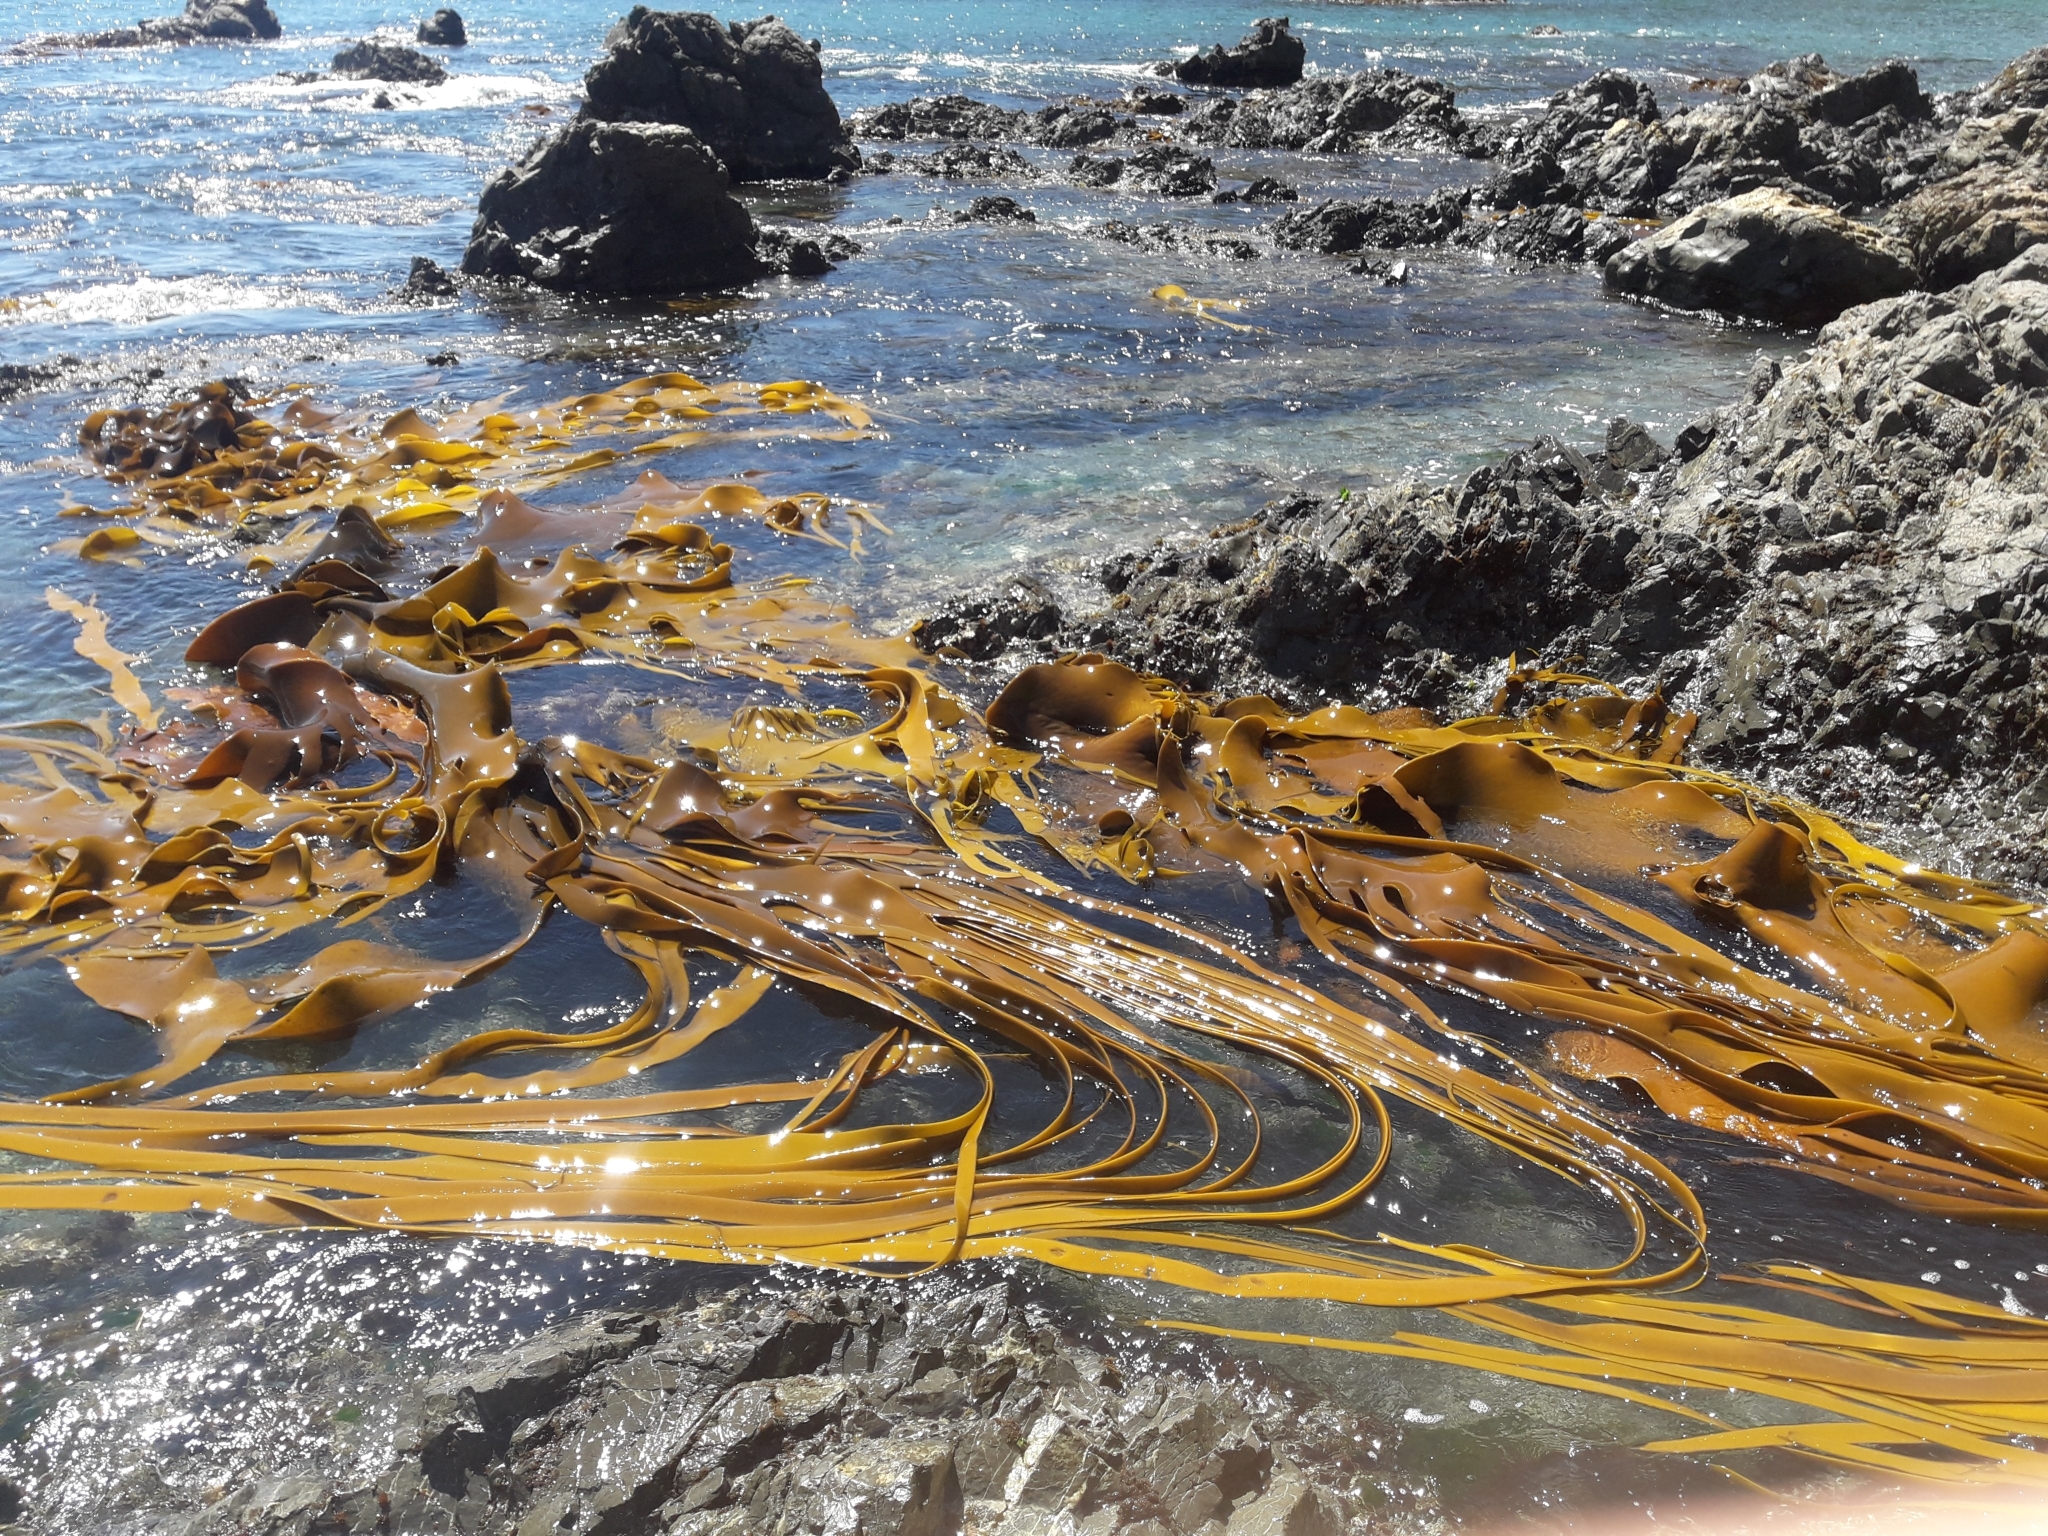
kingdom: Chromista
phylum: Ochrophyta
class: Phaeophyceae
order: Fucales
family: Durvillaeaceae
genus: Durvillaea
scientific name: Durvillaea antarctica
